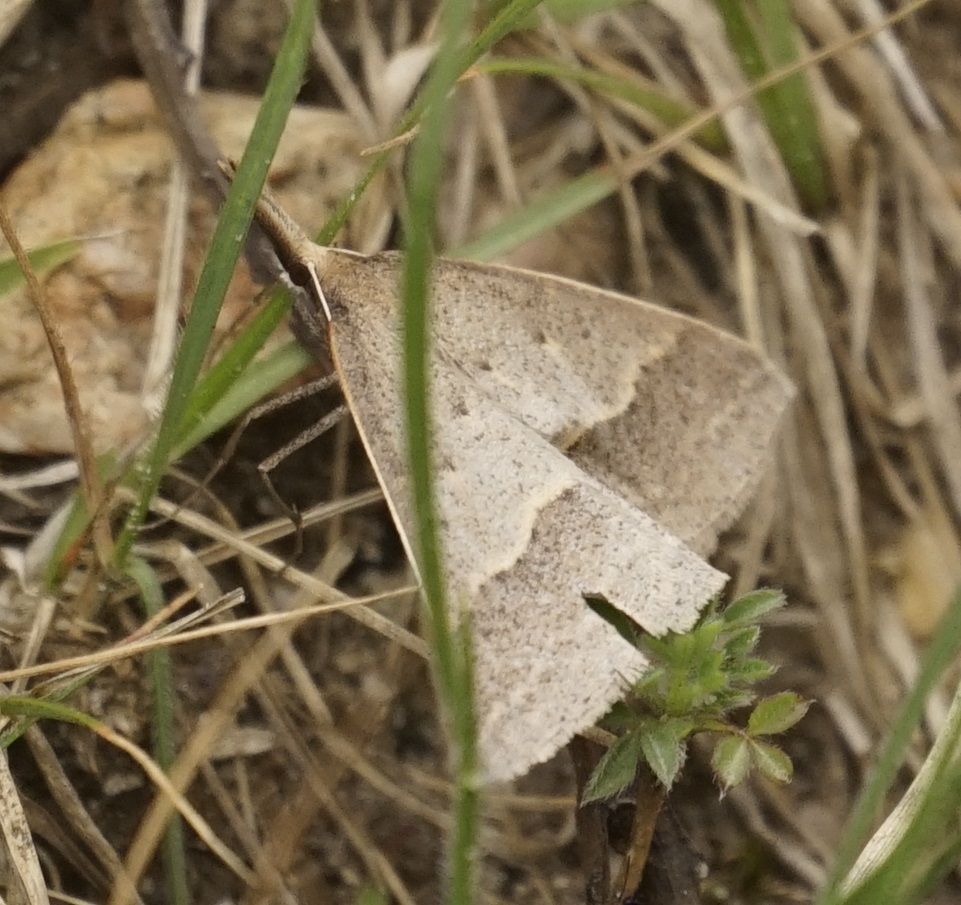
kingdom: Animalia
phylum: Arthropoda
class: Insecta
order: Lepidoptera
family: Geometridae
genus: Epidesmia
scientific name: Epidesmia tryxaria
